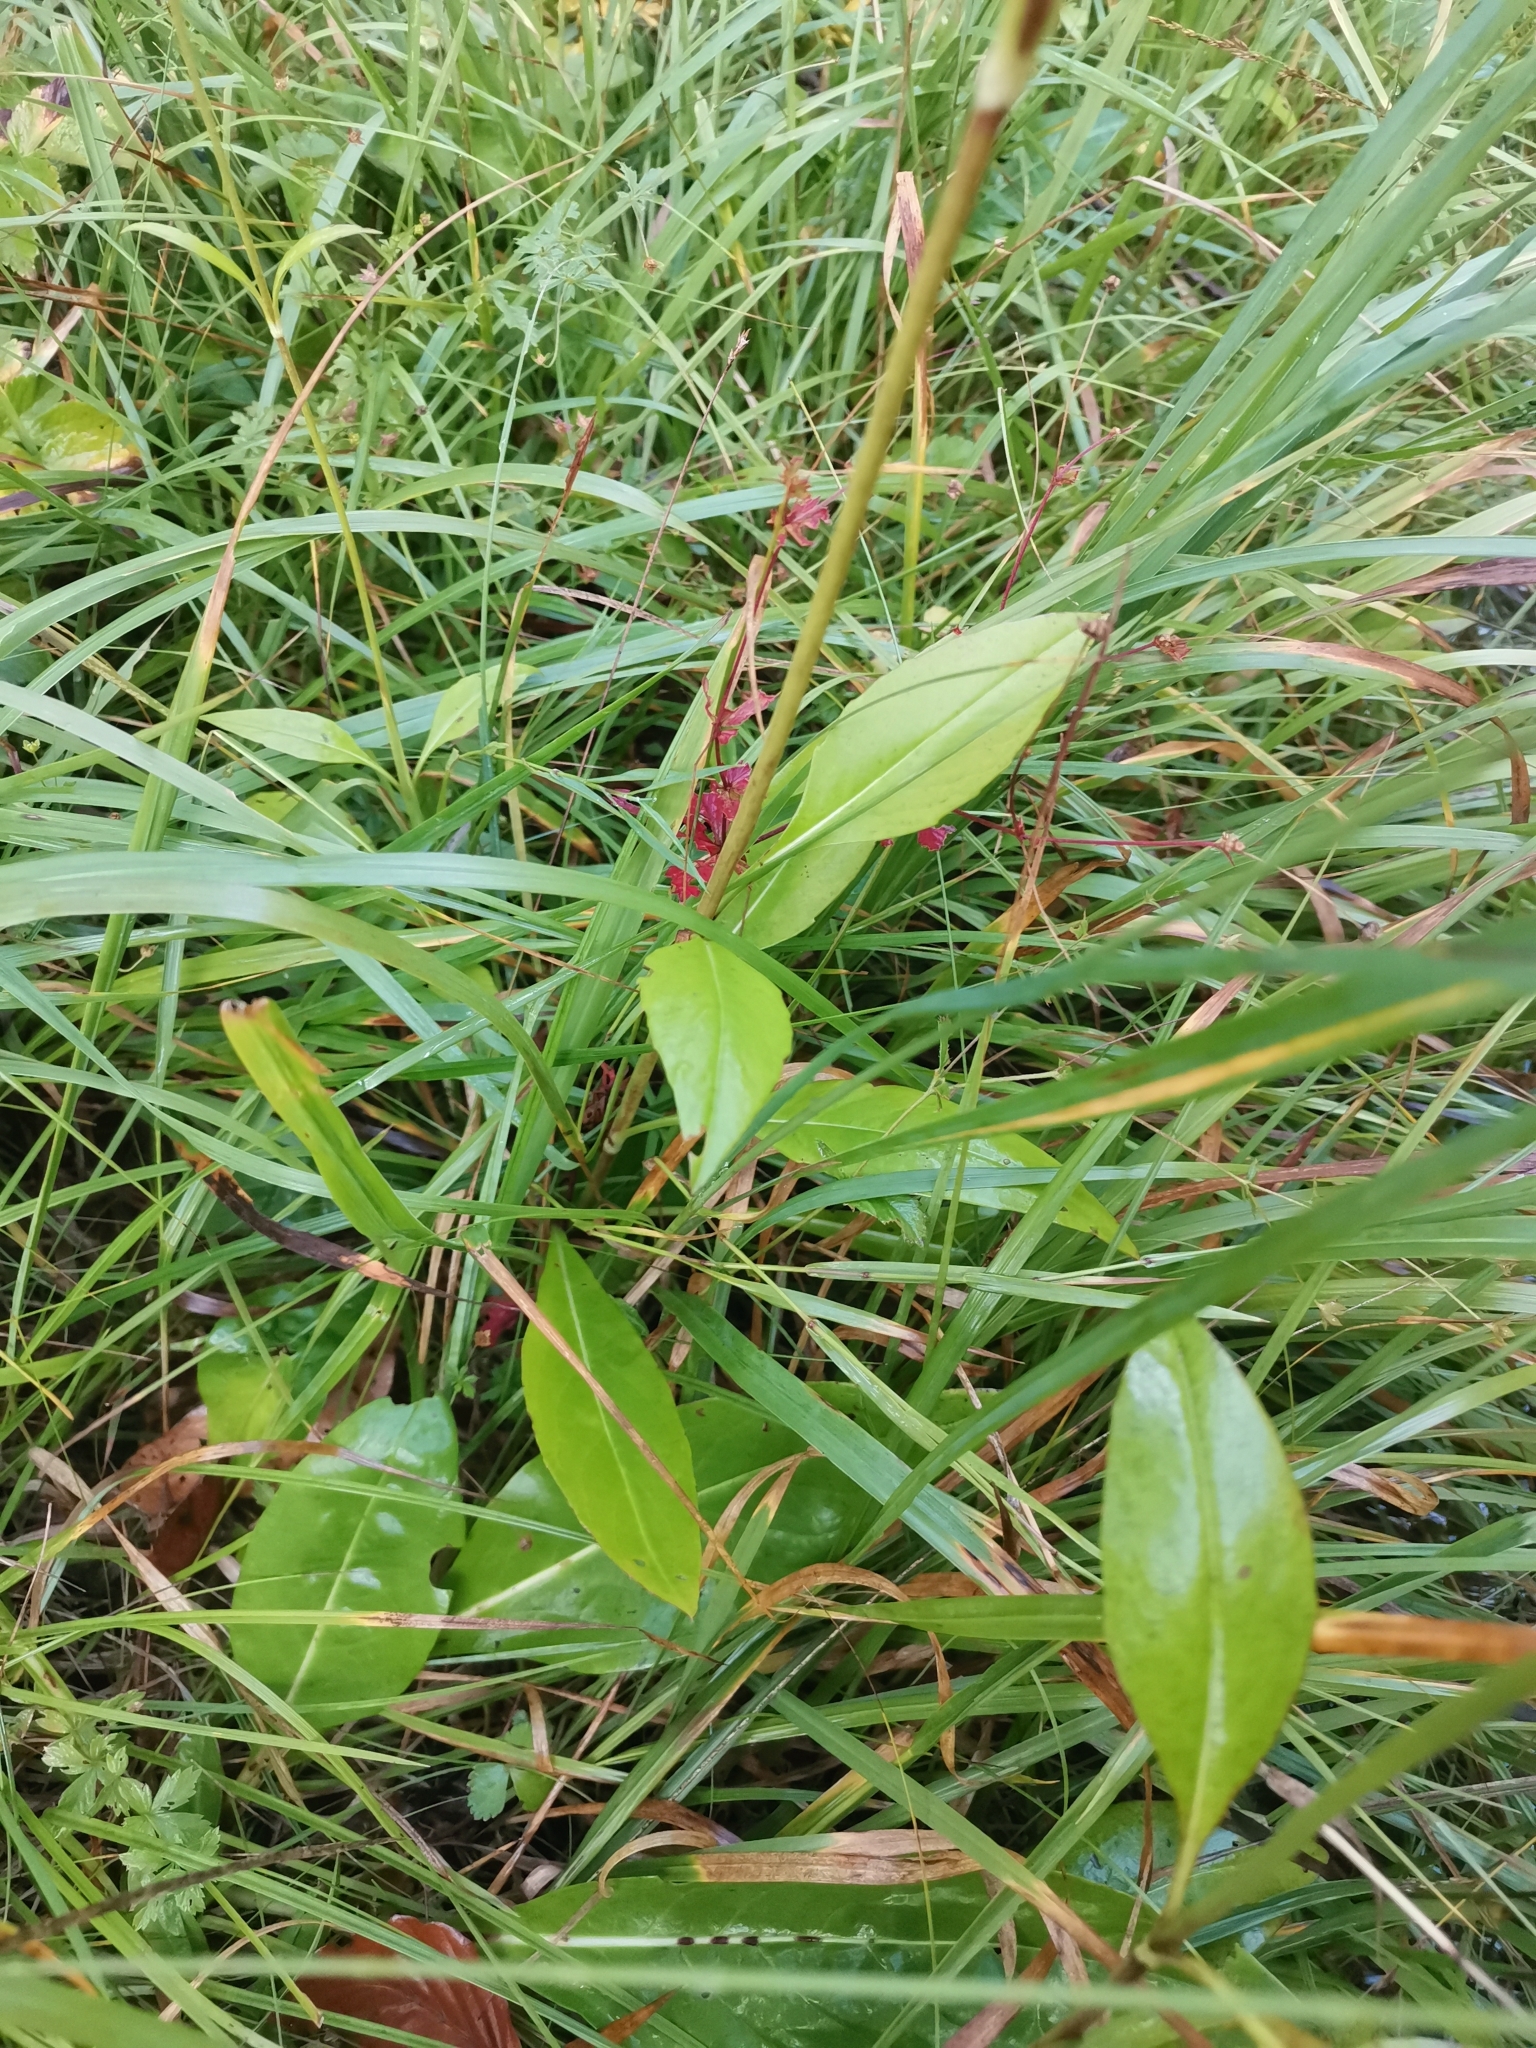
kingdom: Plantae
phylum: Tracheophyta
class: Magnoliopsida
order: Dipsacales
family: Caprifoliaceae
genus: Succisa
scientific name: Succisa pratensis
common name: Devil's-bit
